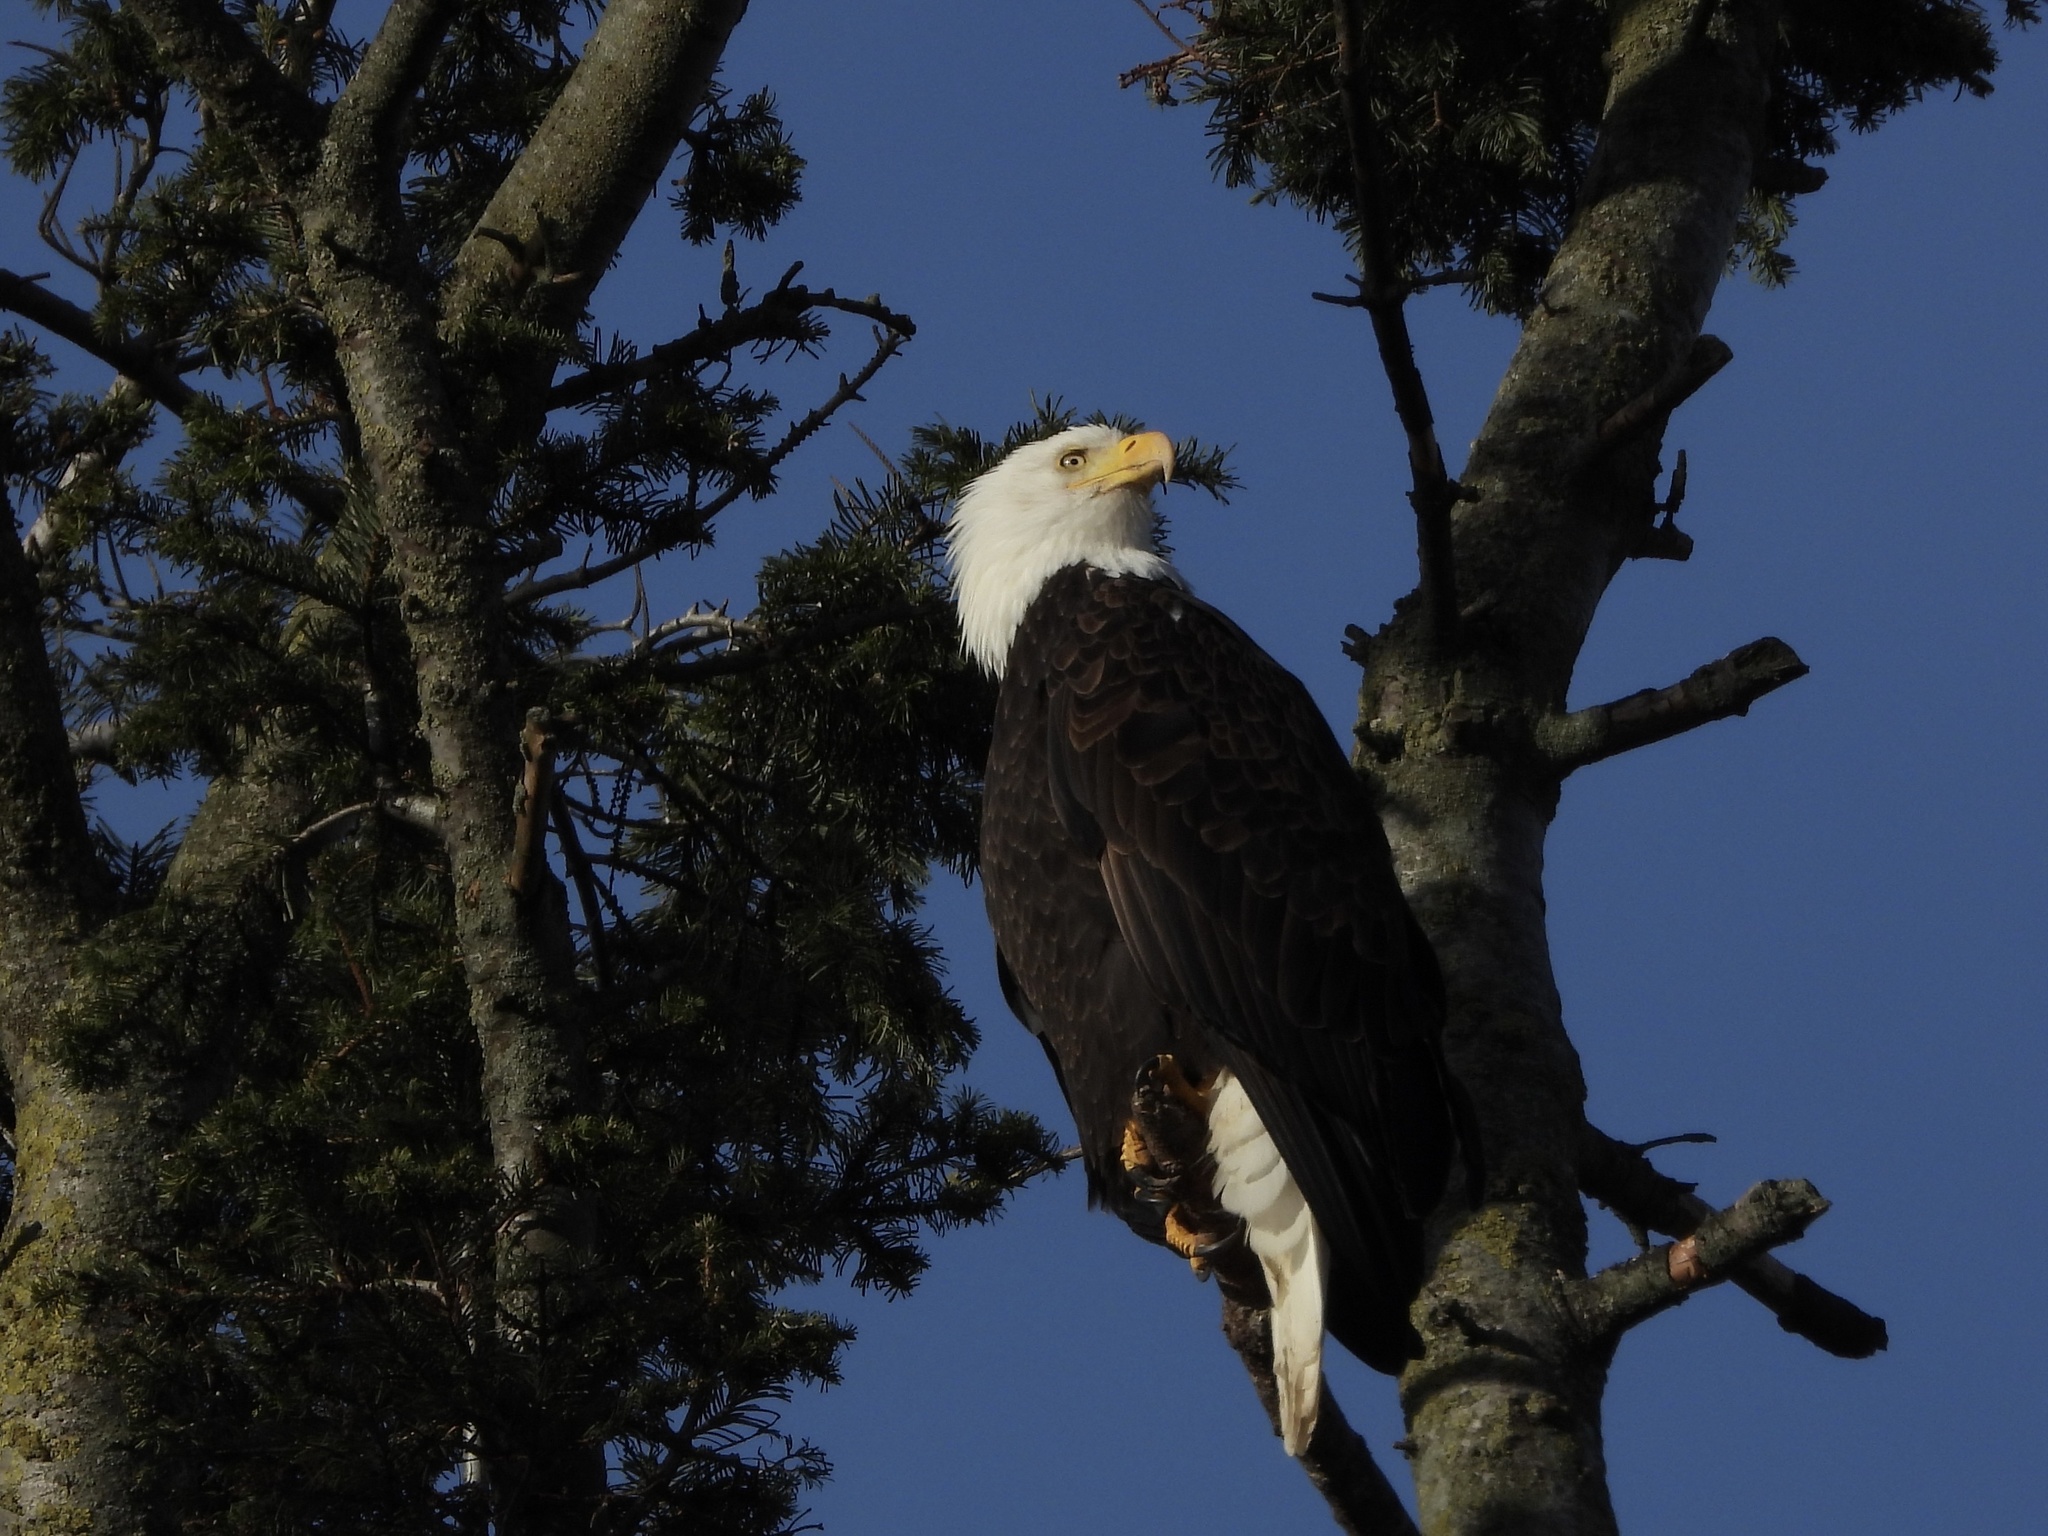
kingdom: Animalia
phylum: Chordata
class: Aves
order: Accipitriformes
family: Accipitridae
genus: Haliaeetus
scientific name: Haliaeetus leucocephalus
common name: Bald eagle
